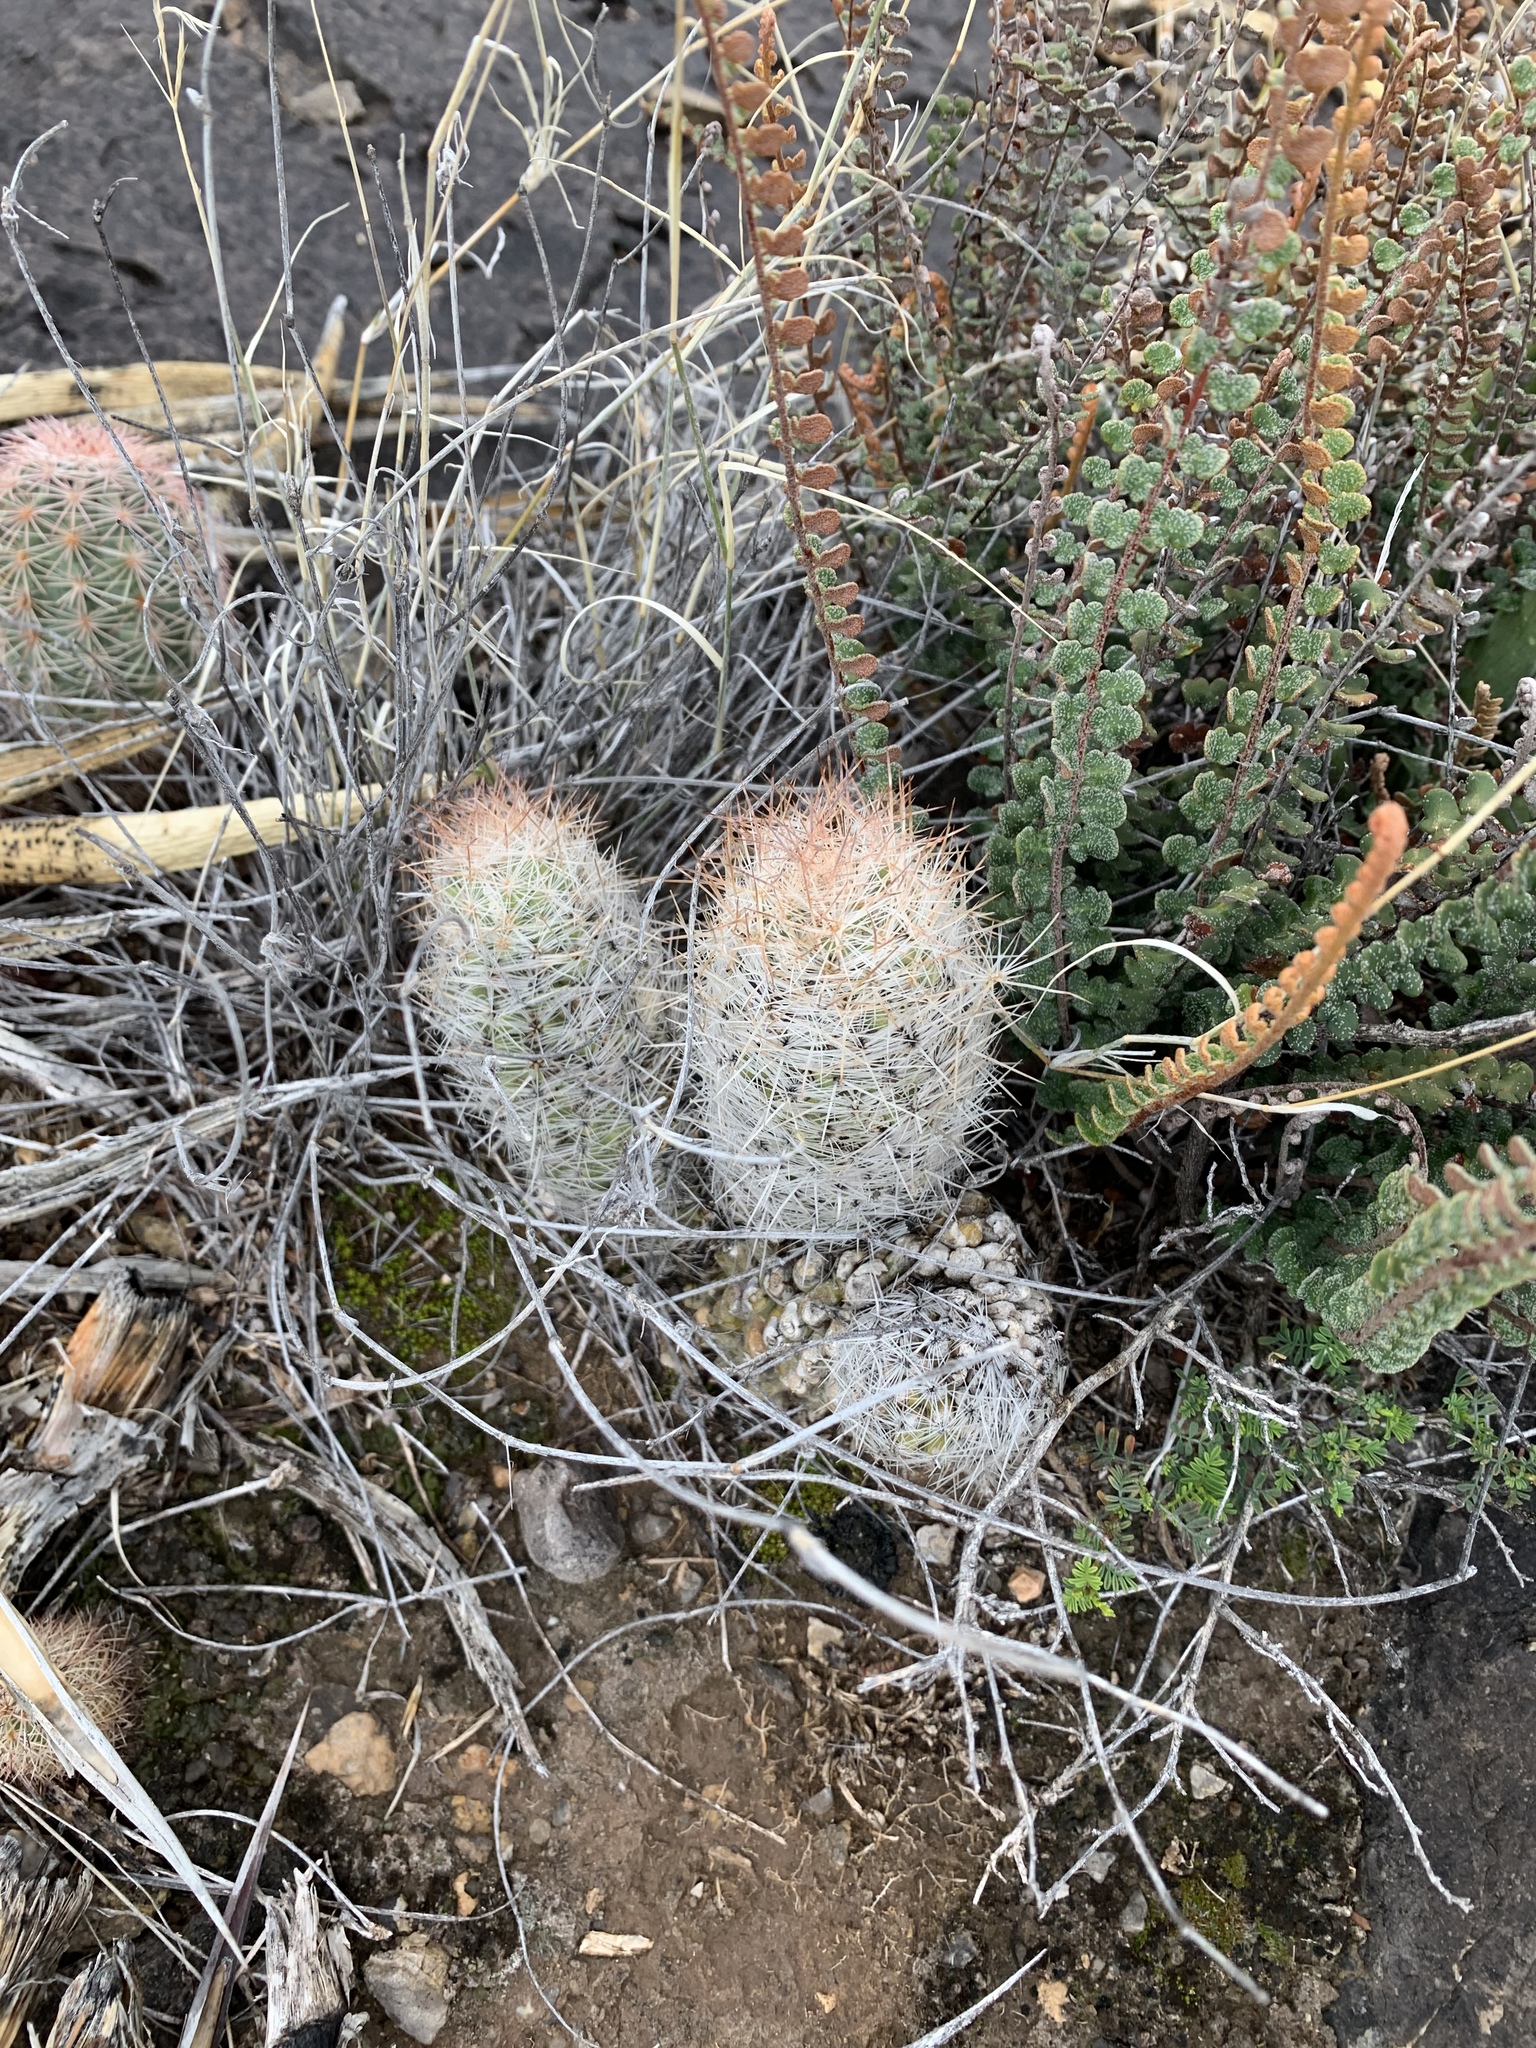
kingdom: Plantae
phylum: Tracheophyta
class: Magnoliopsida
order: Caryophyllales
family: Cactaceae
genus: Pelecyphora
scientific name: Pelecyphora tuberculosa
